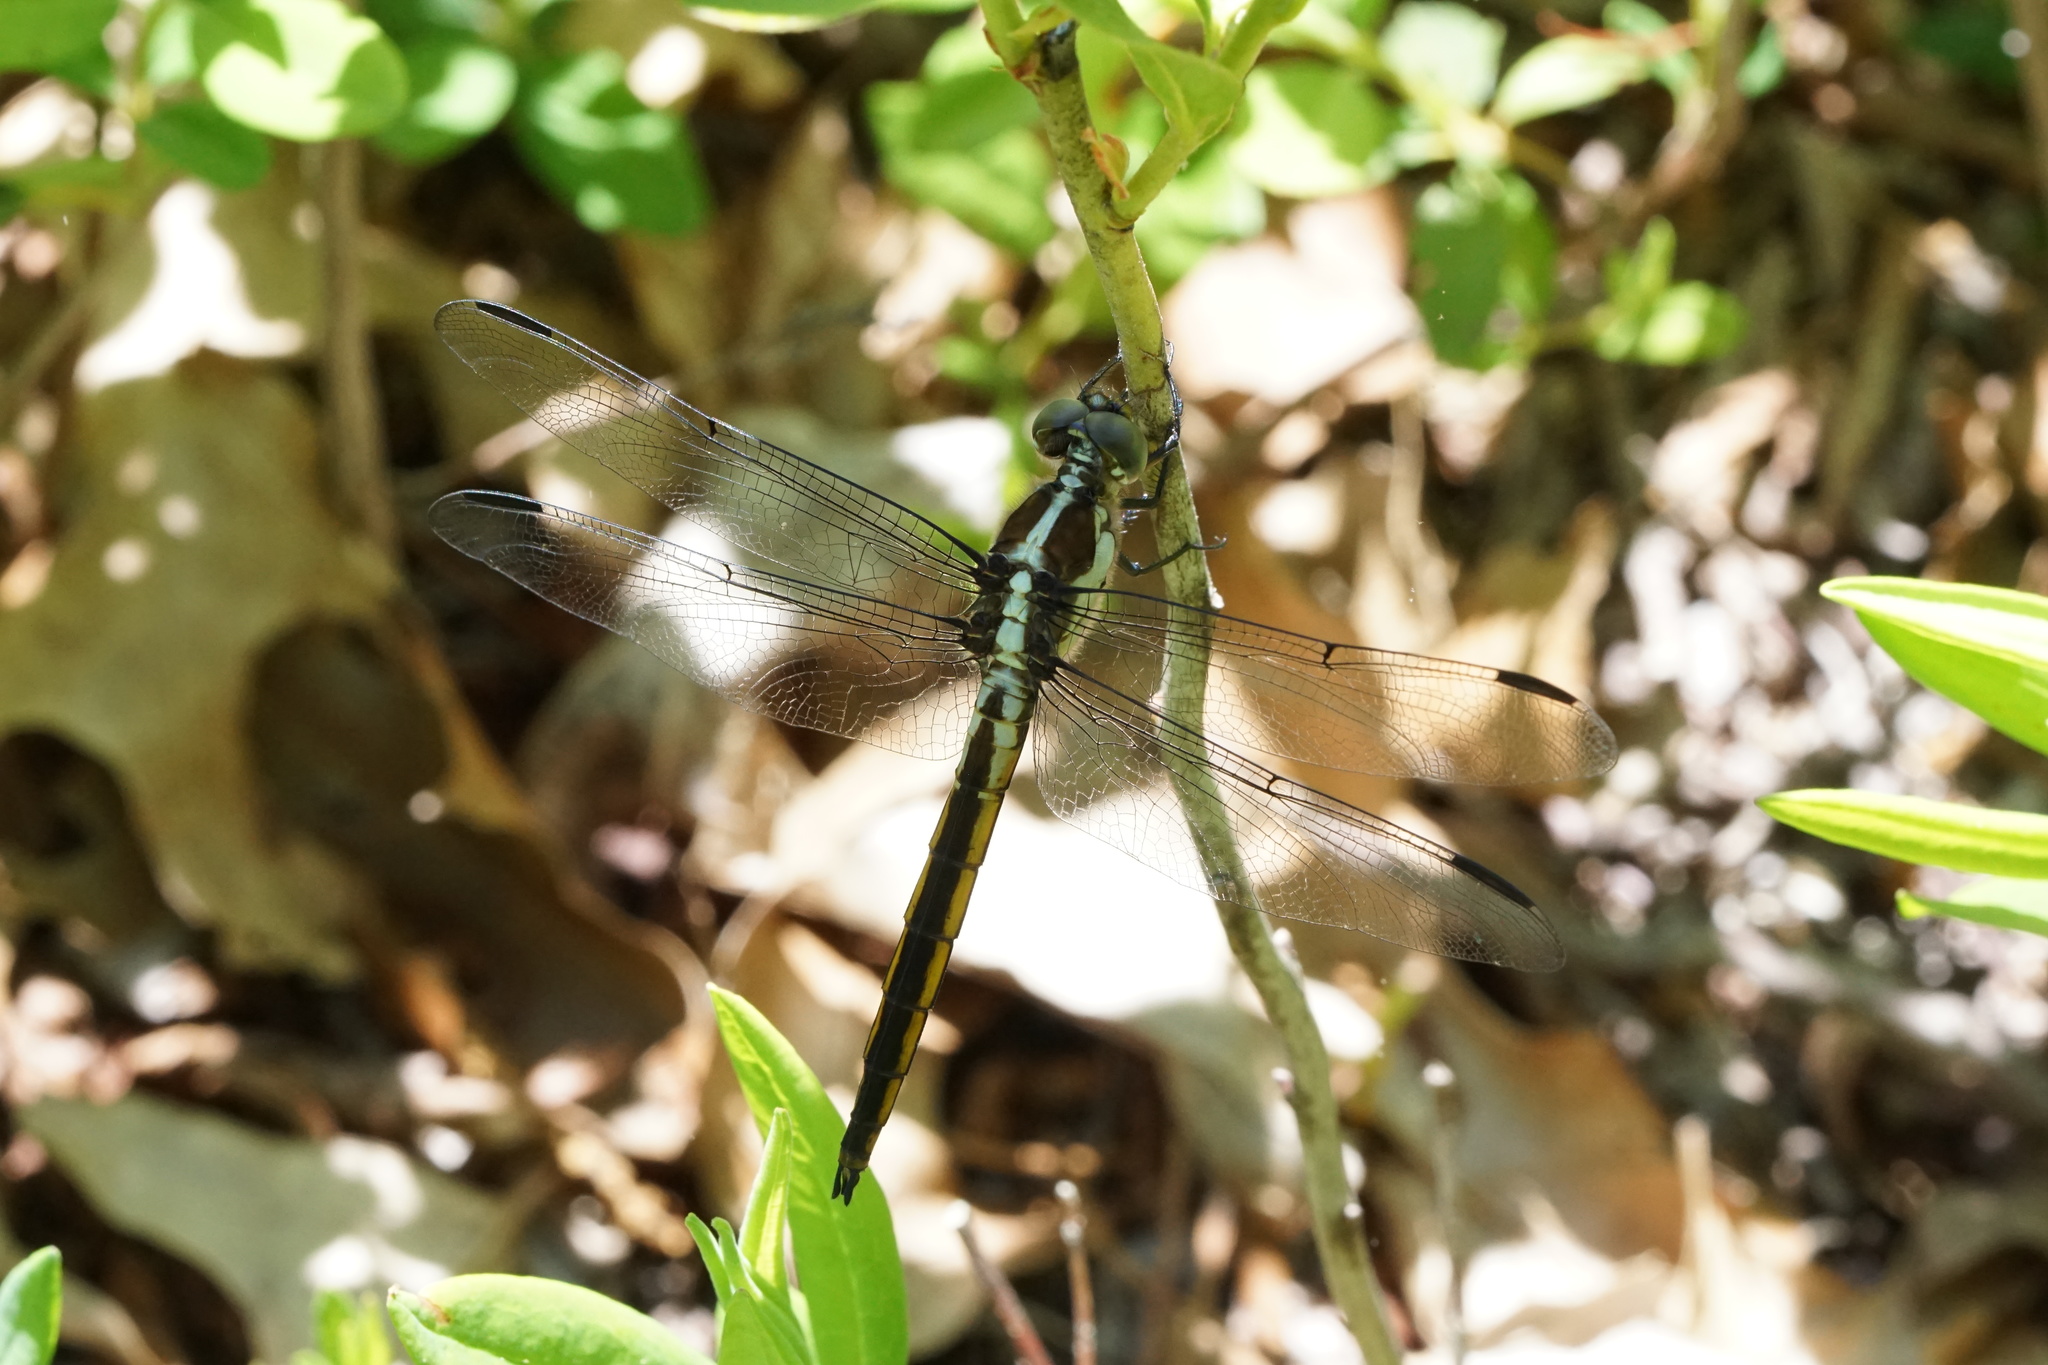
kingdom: Animalia
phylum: Arthropoda
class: Insecta
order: Odonata
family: Libellulidae
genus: Libellula
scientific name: Libellula incesta
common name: Slaty skimmer
